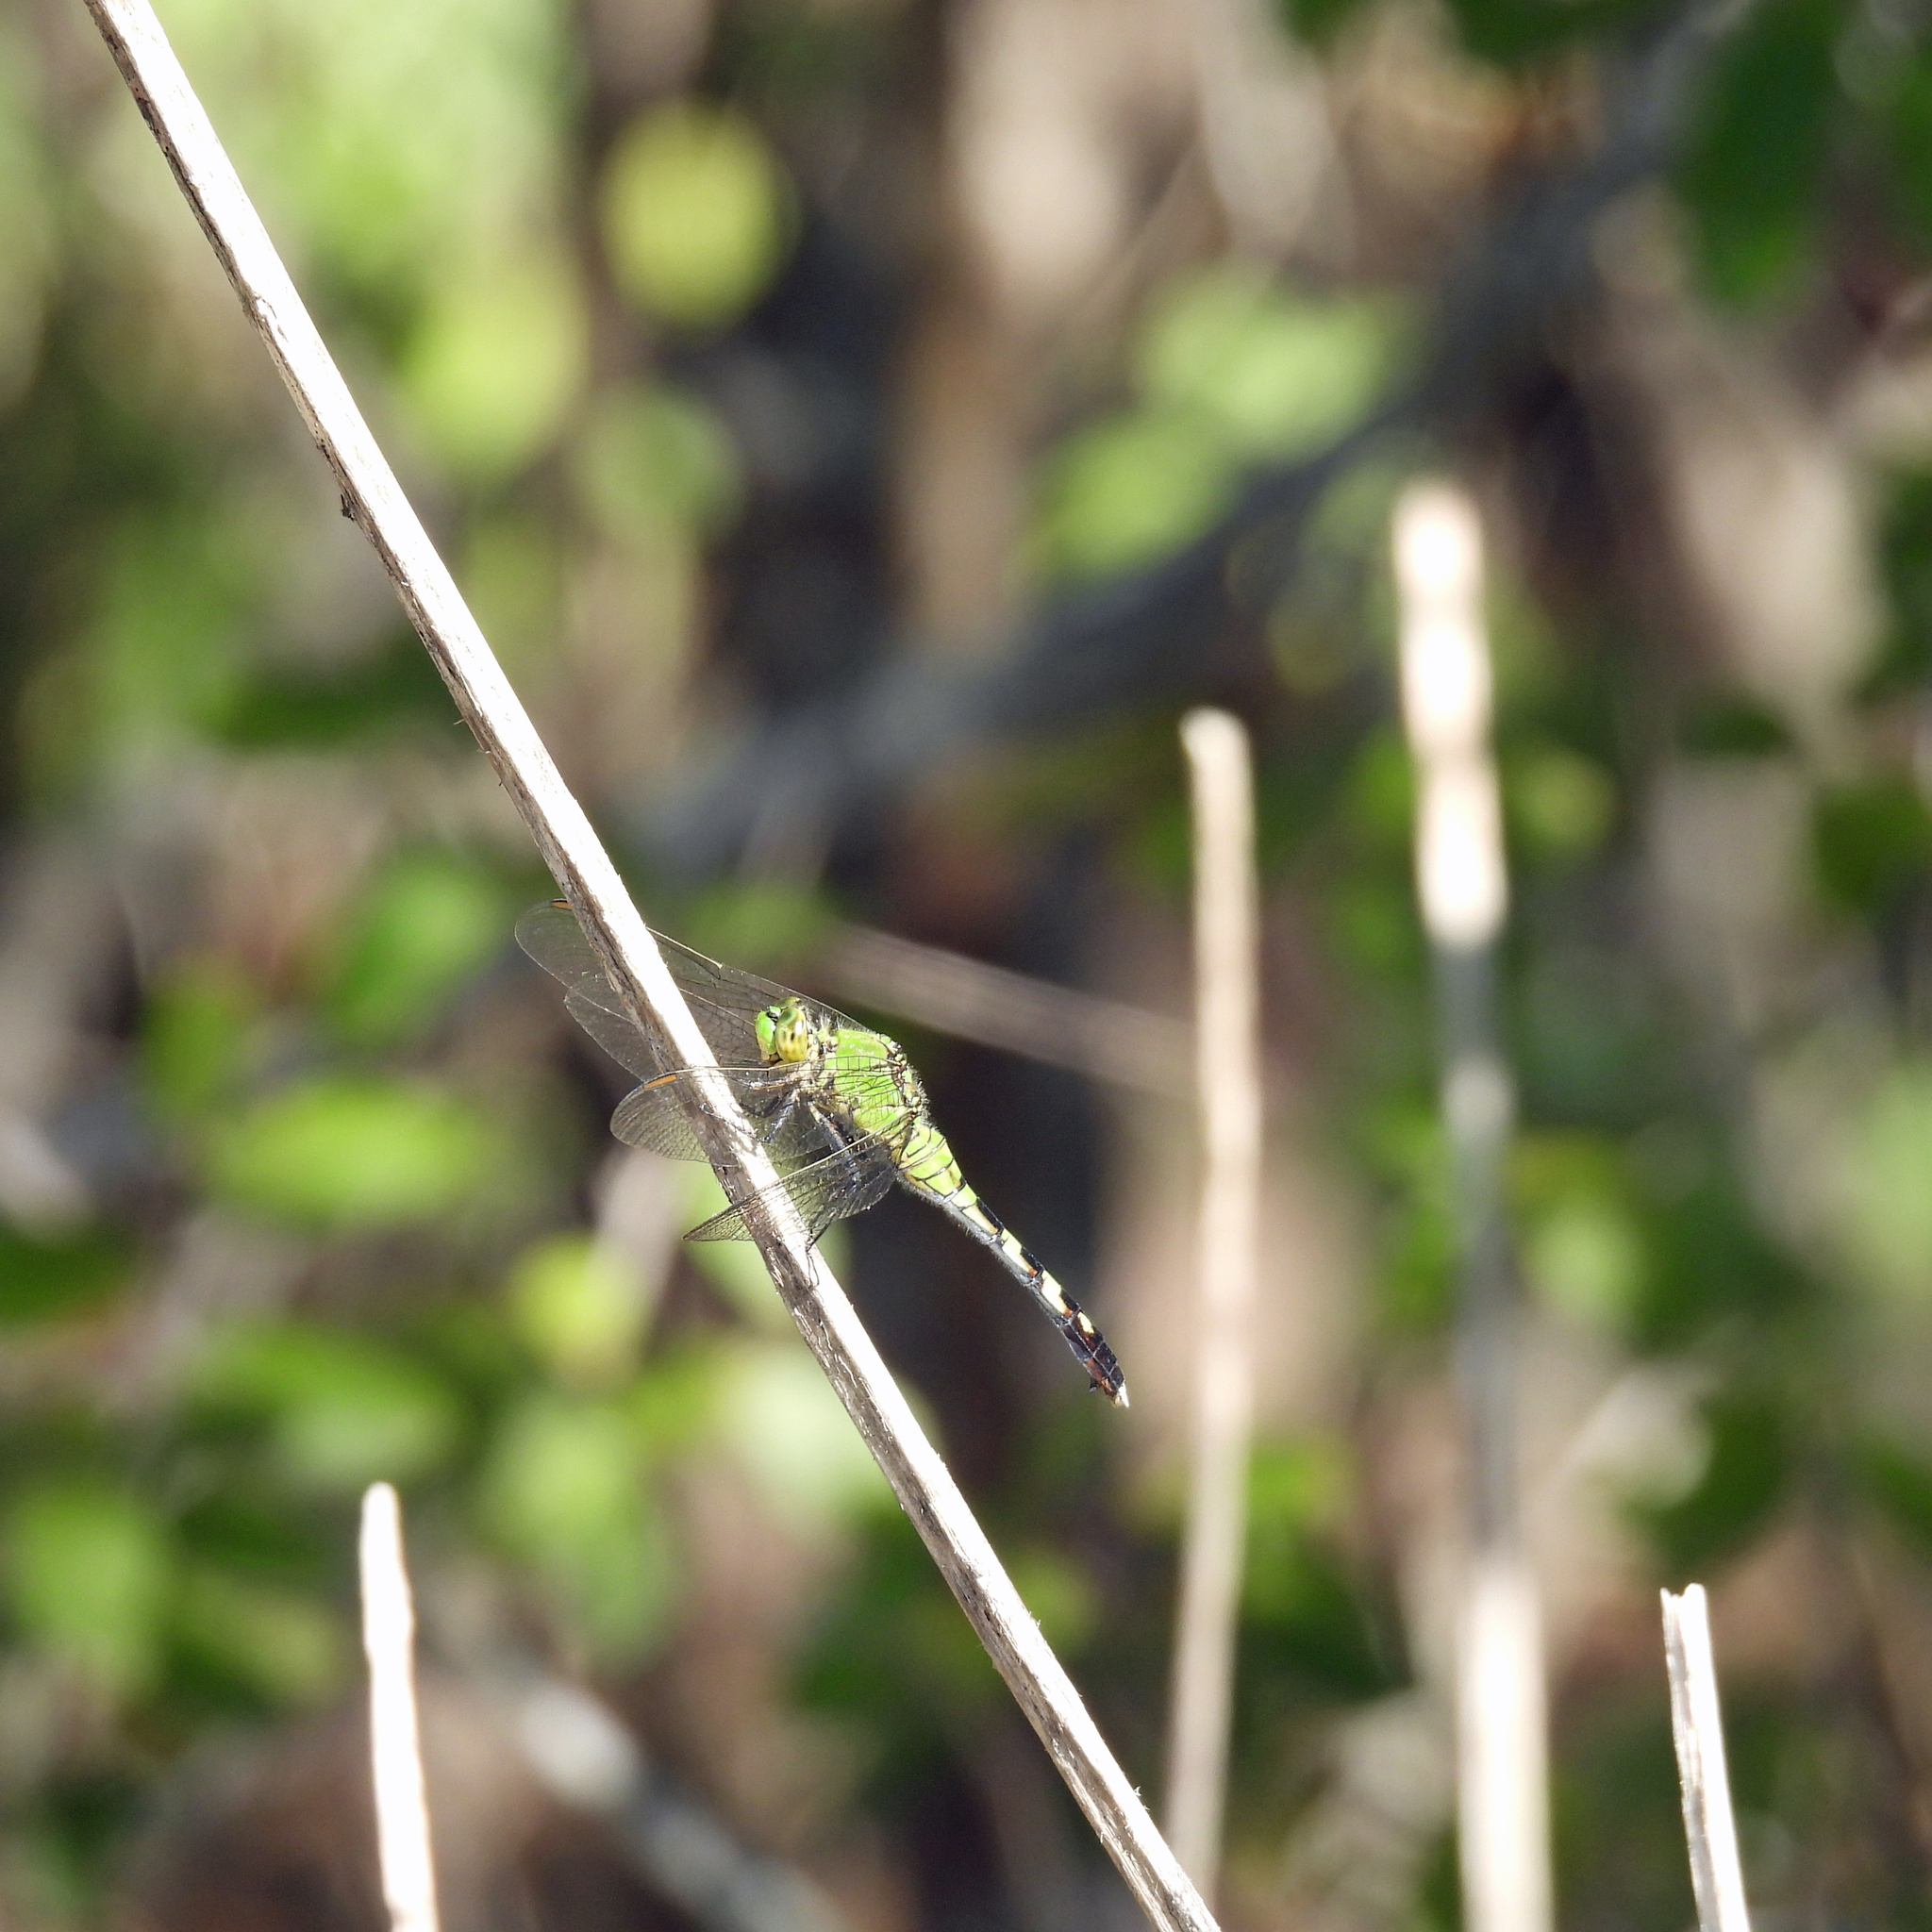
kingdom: Animalia
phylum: Arthropoda
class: Insecta
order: Odonata
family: Libellulidae
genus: Erythemis
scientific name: Erythemis simplicicollis
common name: Eastern pondhawk
